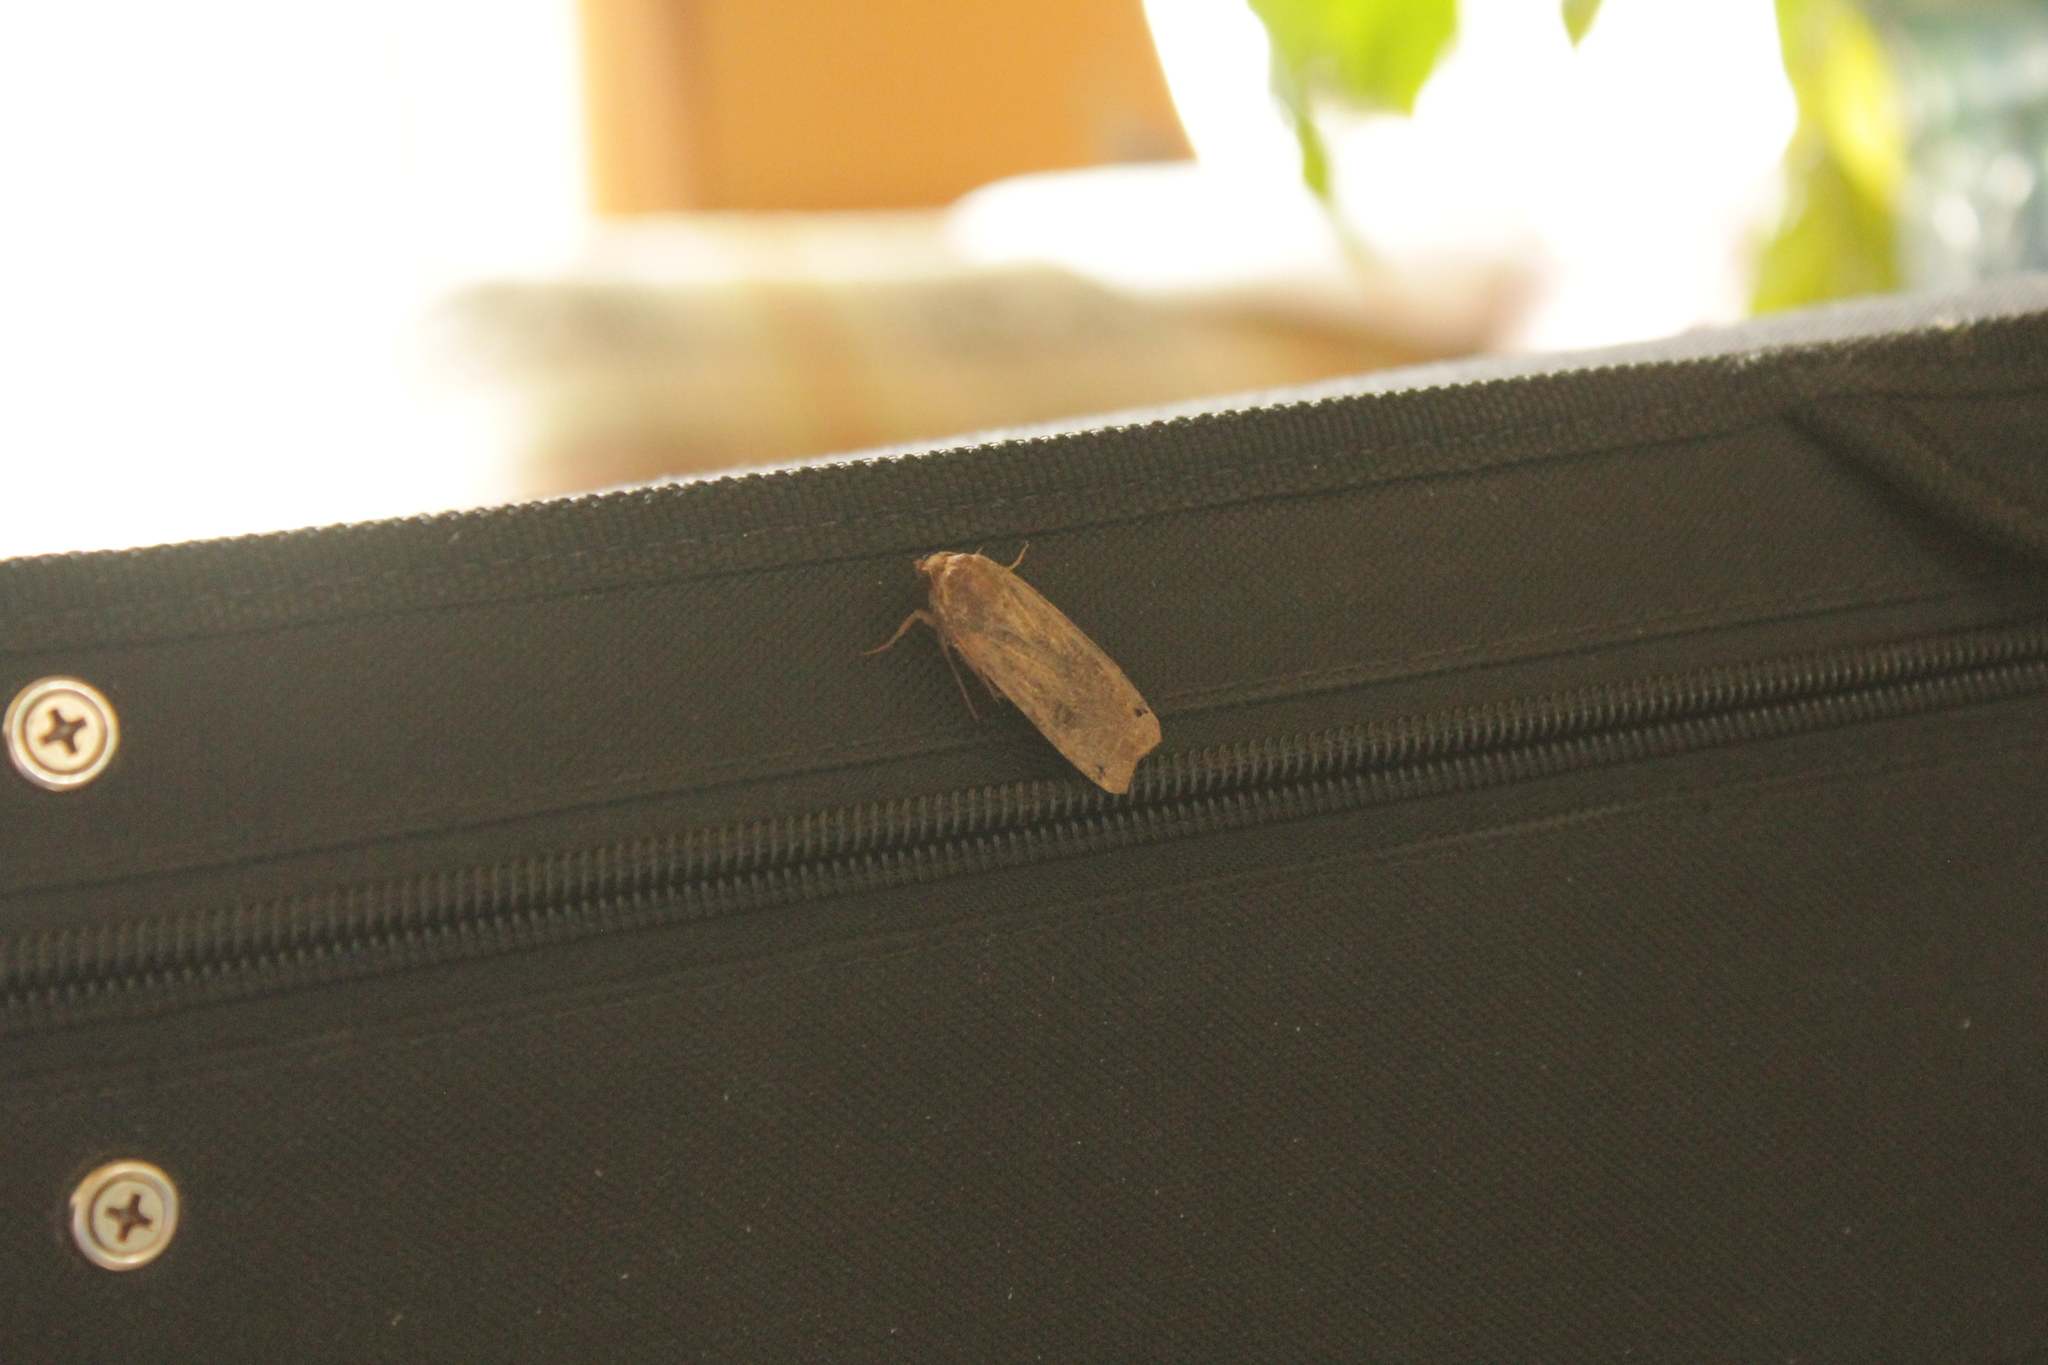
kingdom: Animalia
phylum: Arthropoda
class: Insecta
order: Lepidoptera
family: Noctuidae
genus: Noctua
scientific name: Noctua pronuba
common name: Large yellow underwing
